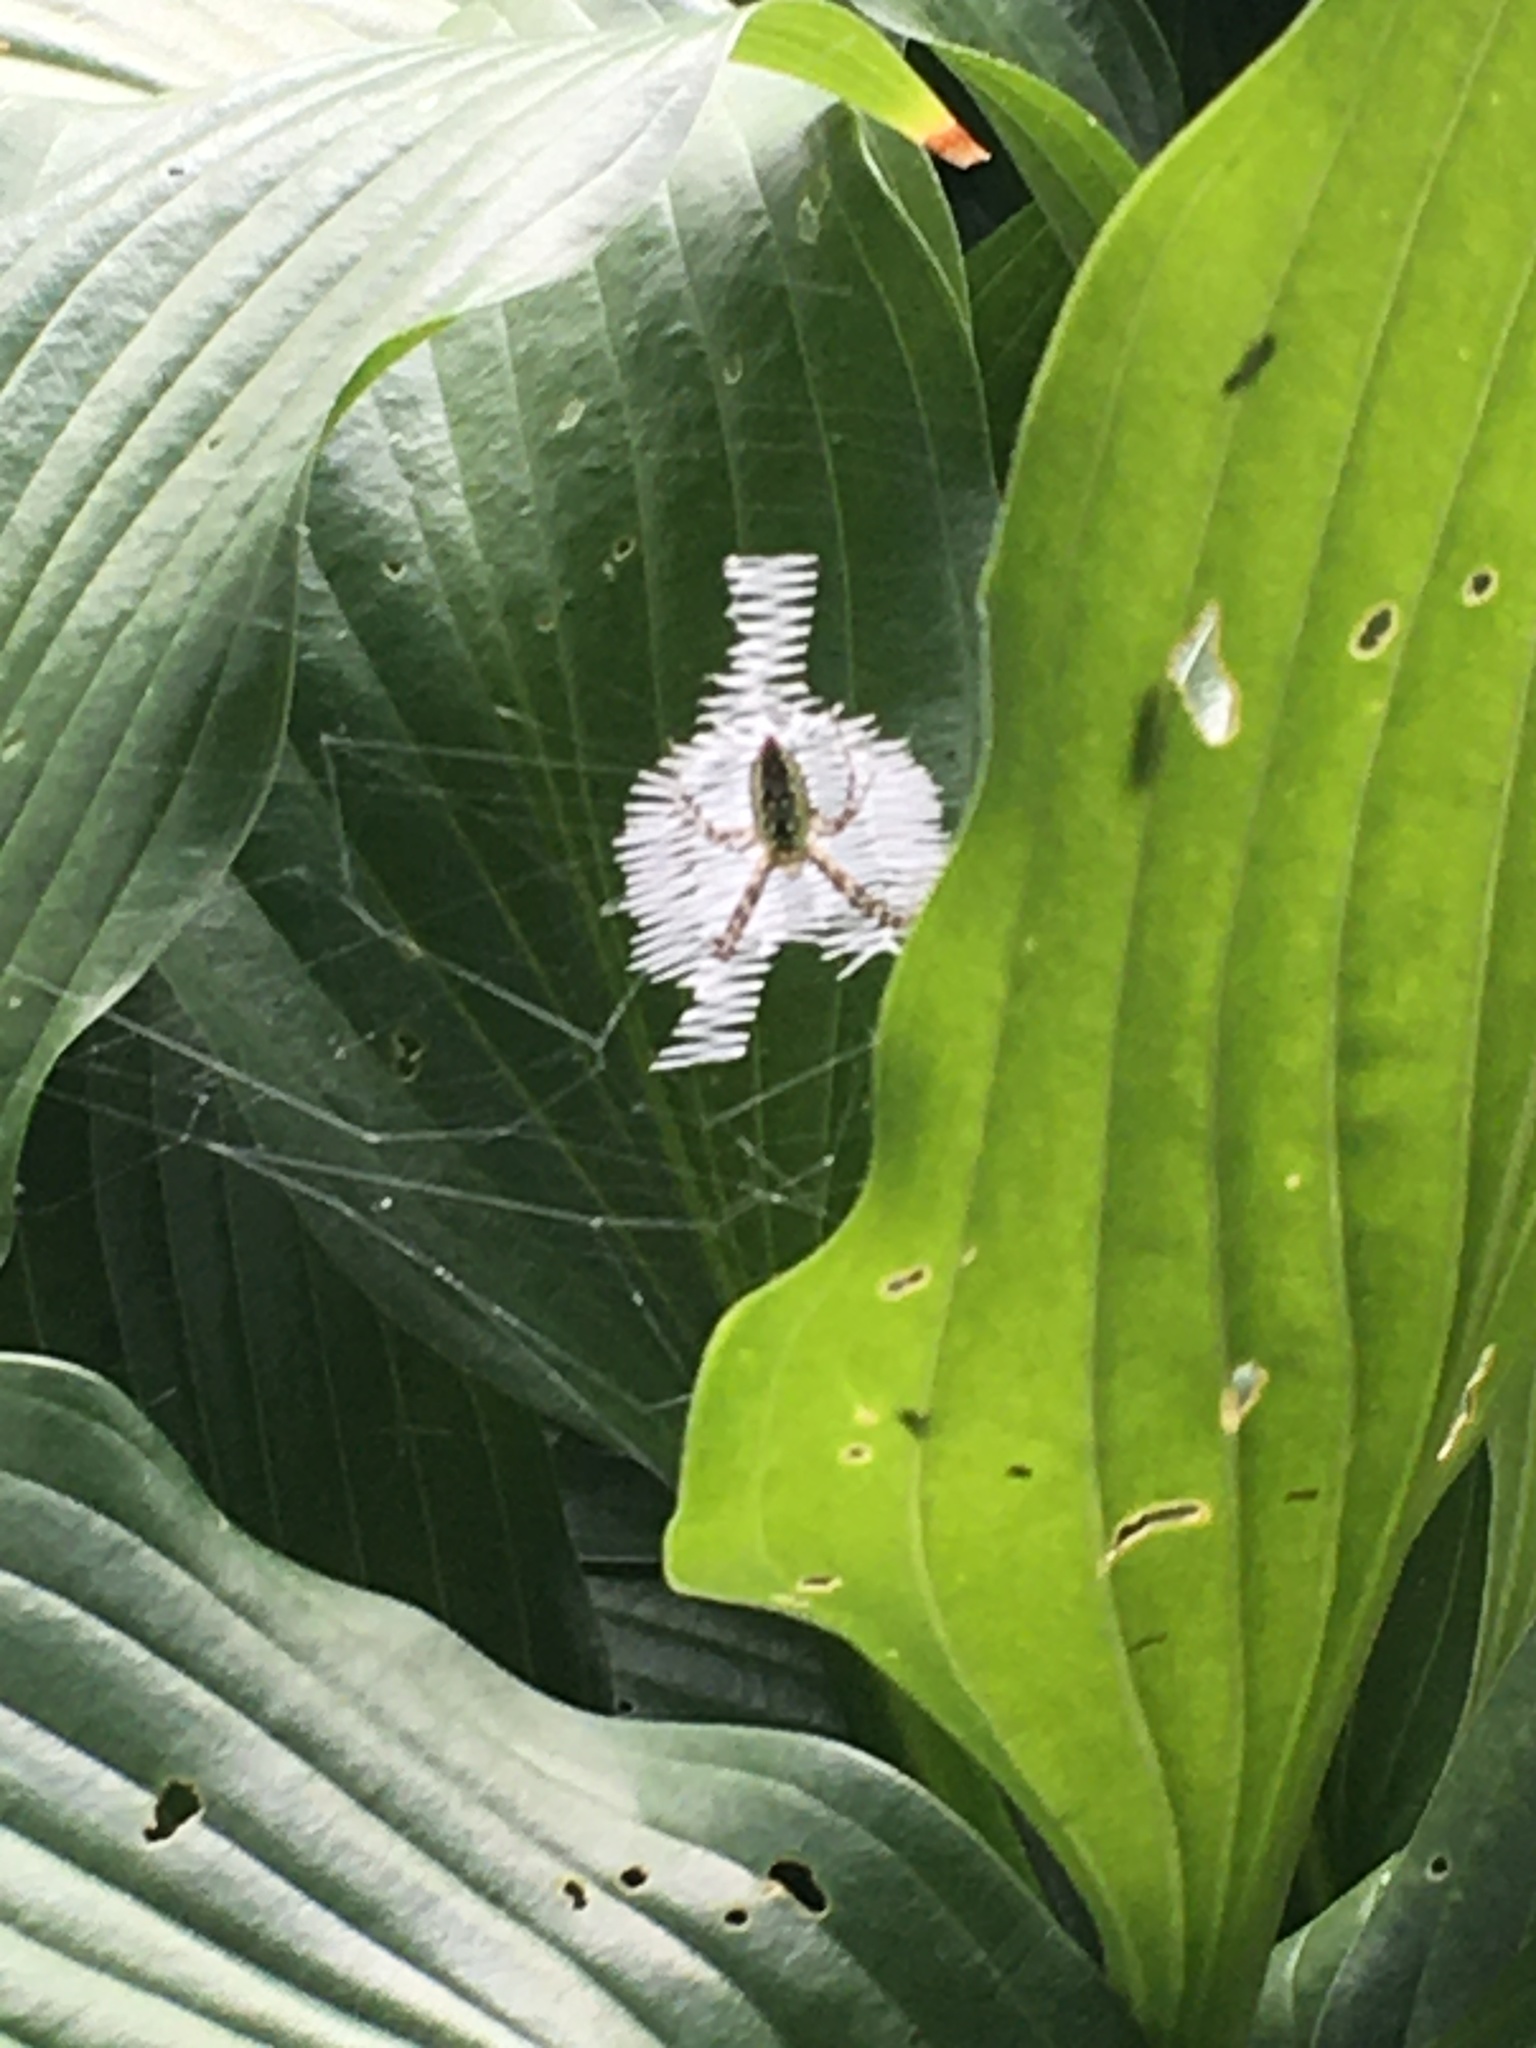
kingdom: Animalia
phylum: Arthropoda
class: Arachnida
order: Araneae
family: Araneidae
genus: Argiope
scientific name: Argiope aurantia
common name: Orb weavers
